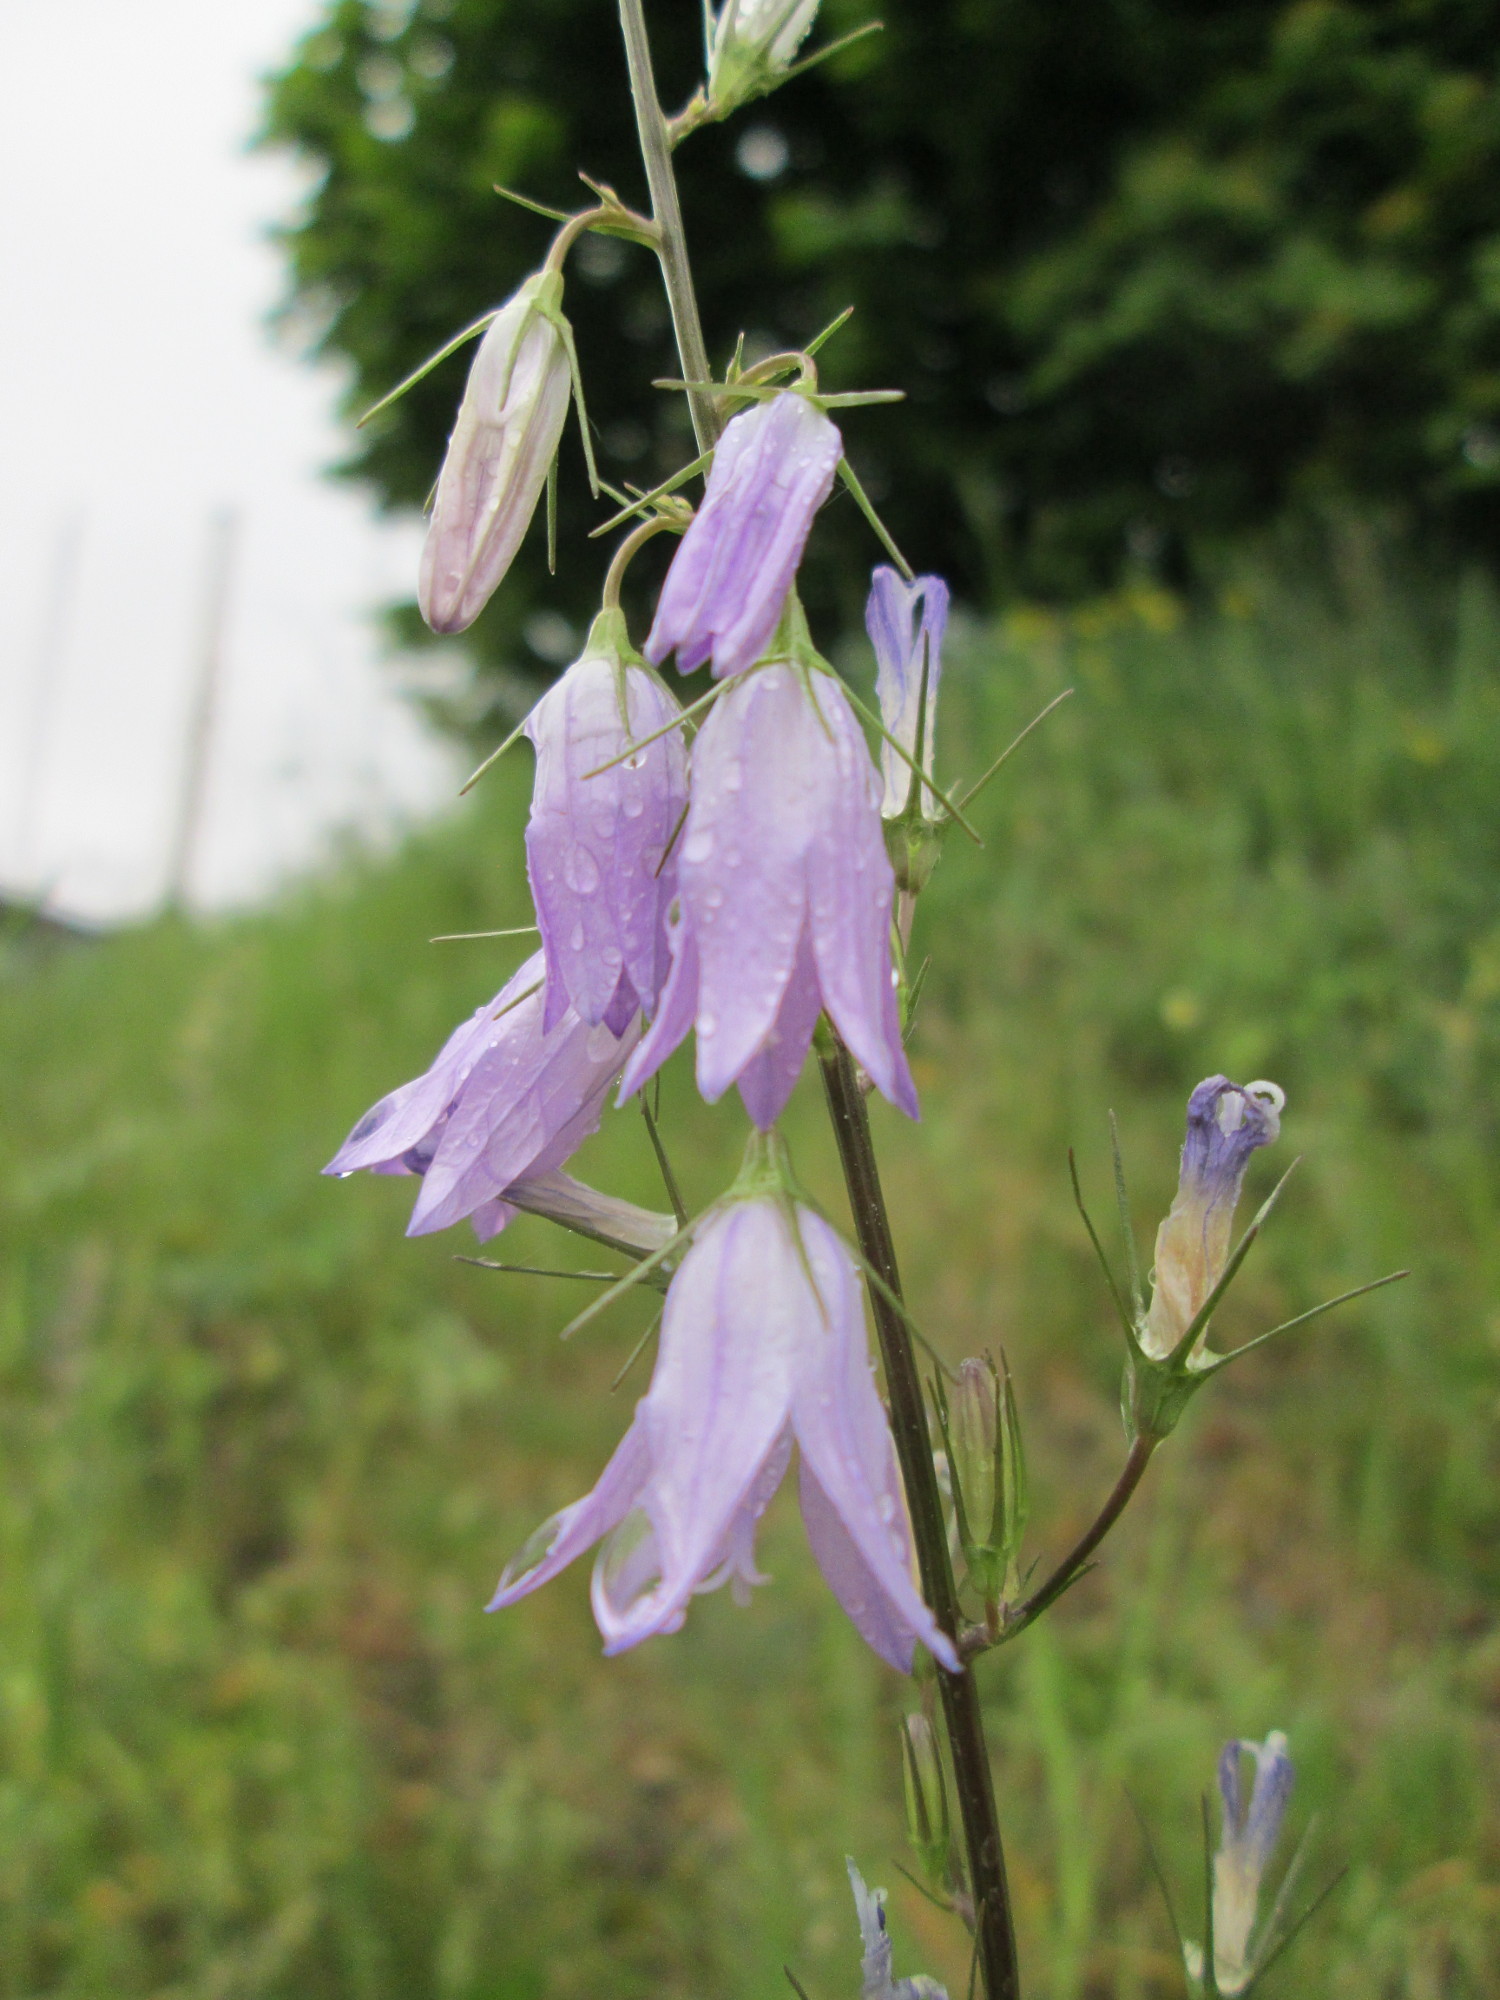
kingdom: Plantae
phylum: Tracheophyta
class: Magnoliopsida
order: Asterales
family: Campanulaceae
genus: Campanula
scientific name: Campanula rapunculus
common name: Rampion bellflower
